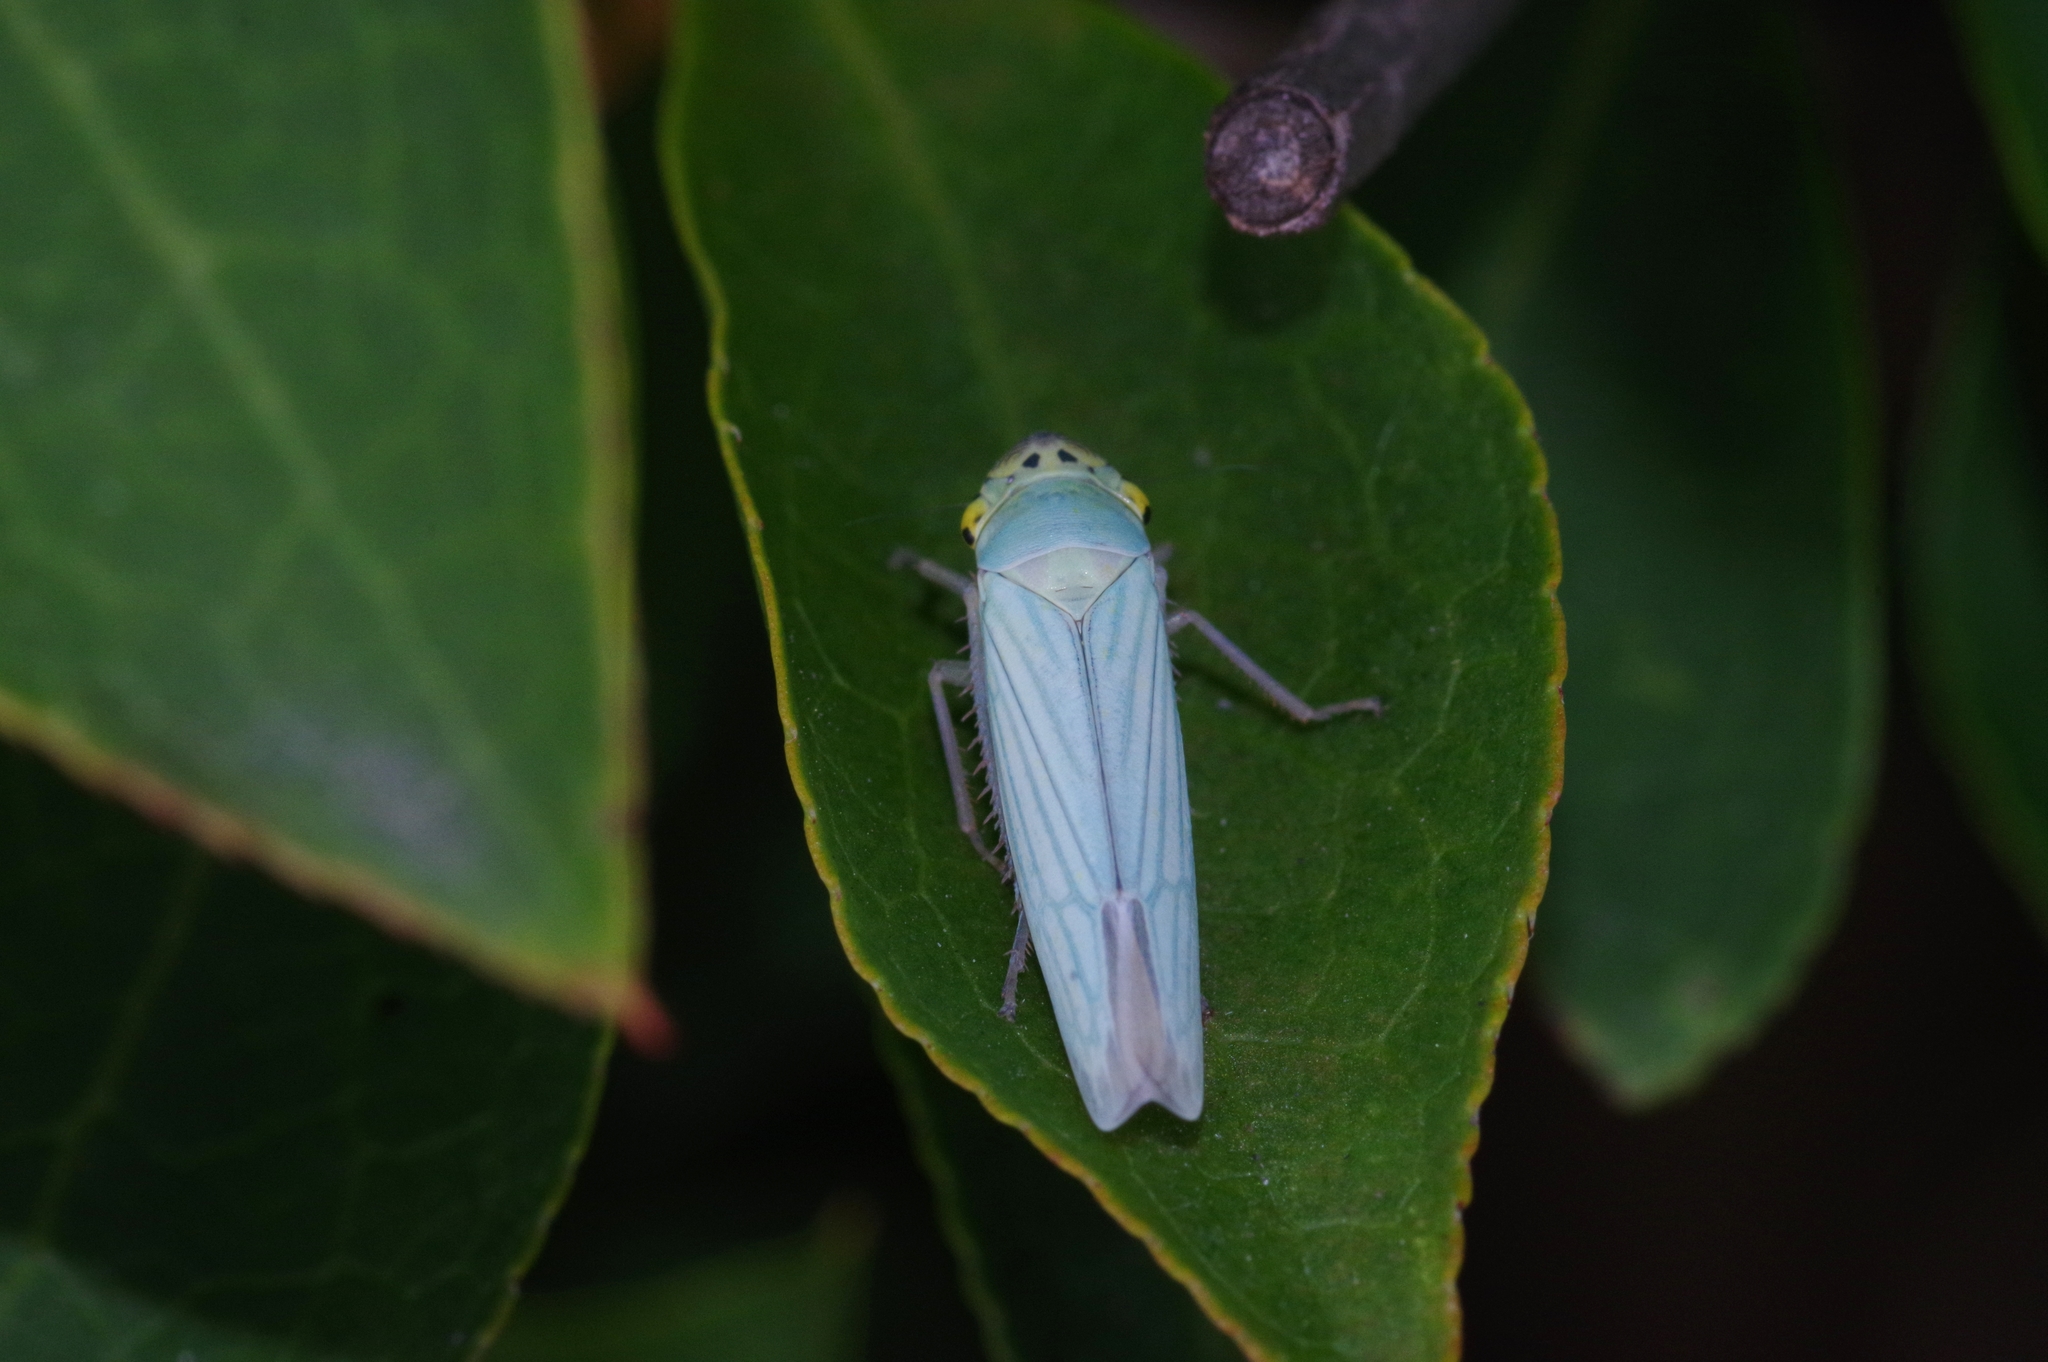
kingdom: Animalia
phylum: Arthropoda
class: Insecta
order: Hemiptera
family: Cicadellidae
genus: Cicadella
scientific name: Cicadella viridis
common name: Leafhopper
